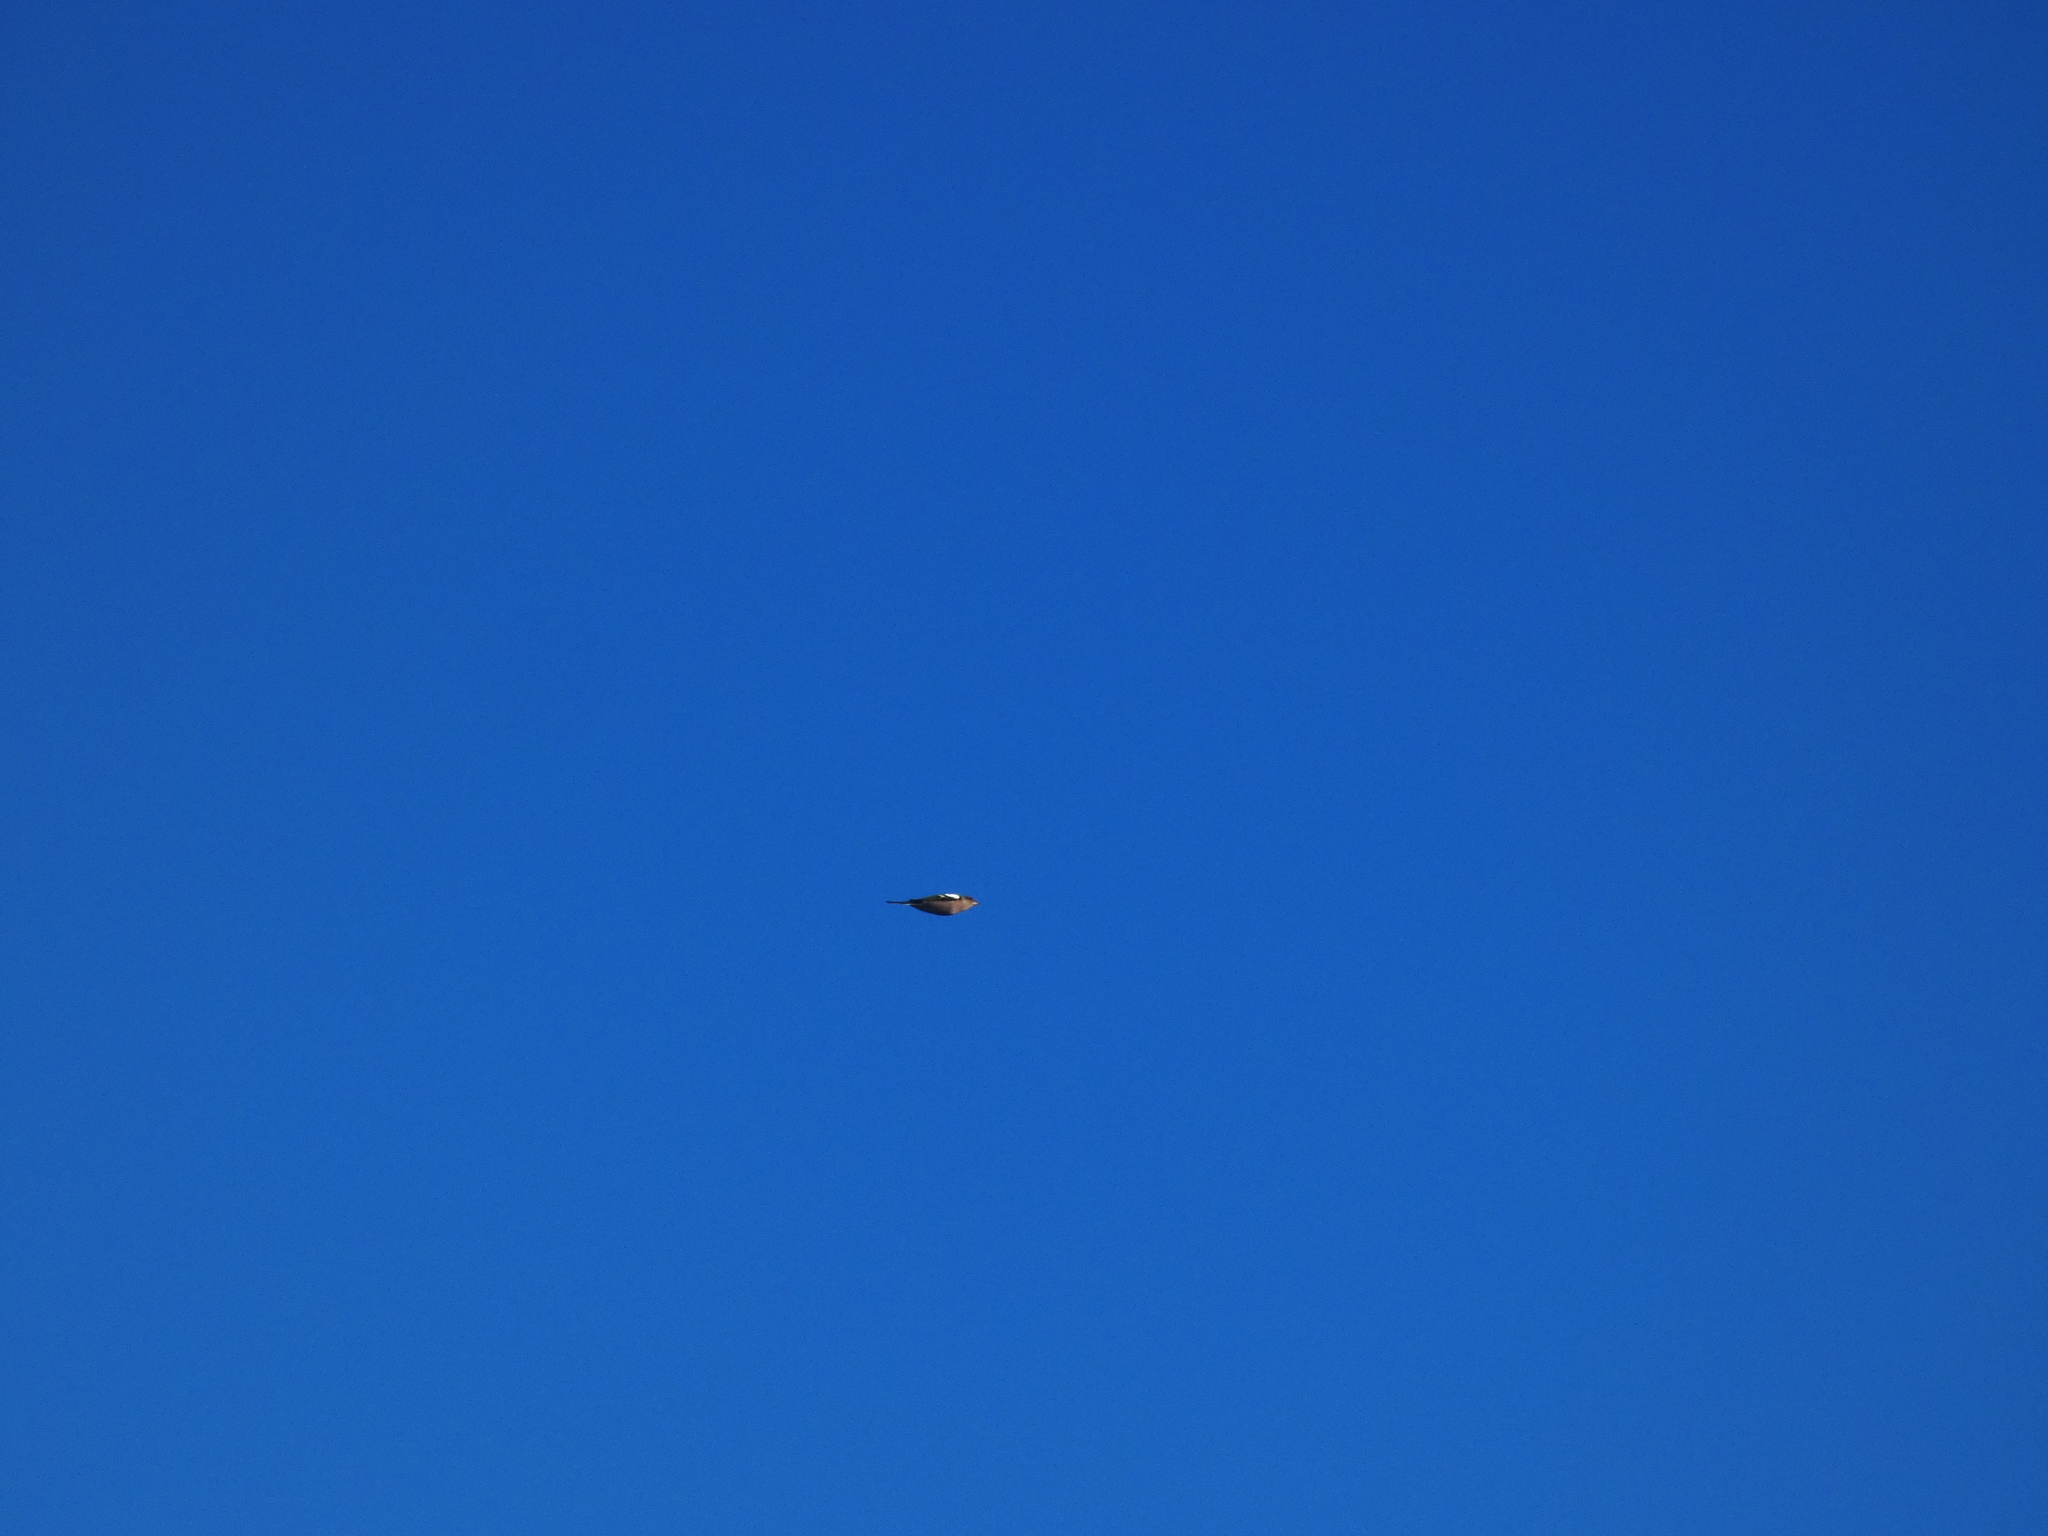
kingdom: Animalia
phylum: Chordata
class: Aves
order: Passeriformes
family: Fringillidae
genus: Fringilla
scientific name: Fringilla coelebs
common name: Common chaffinch
